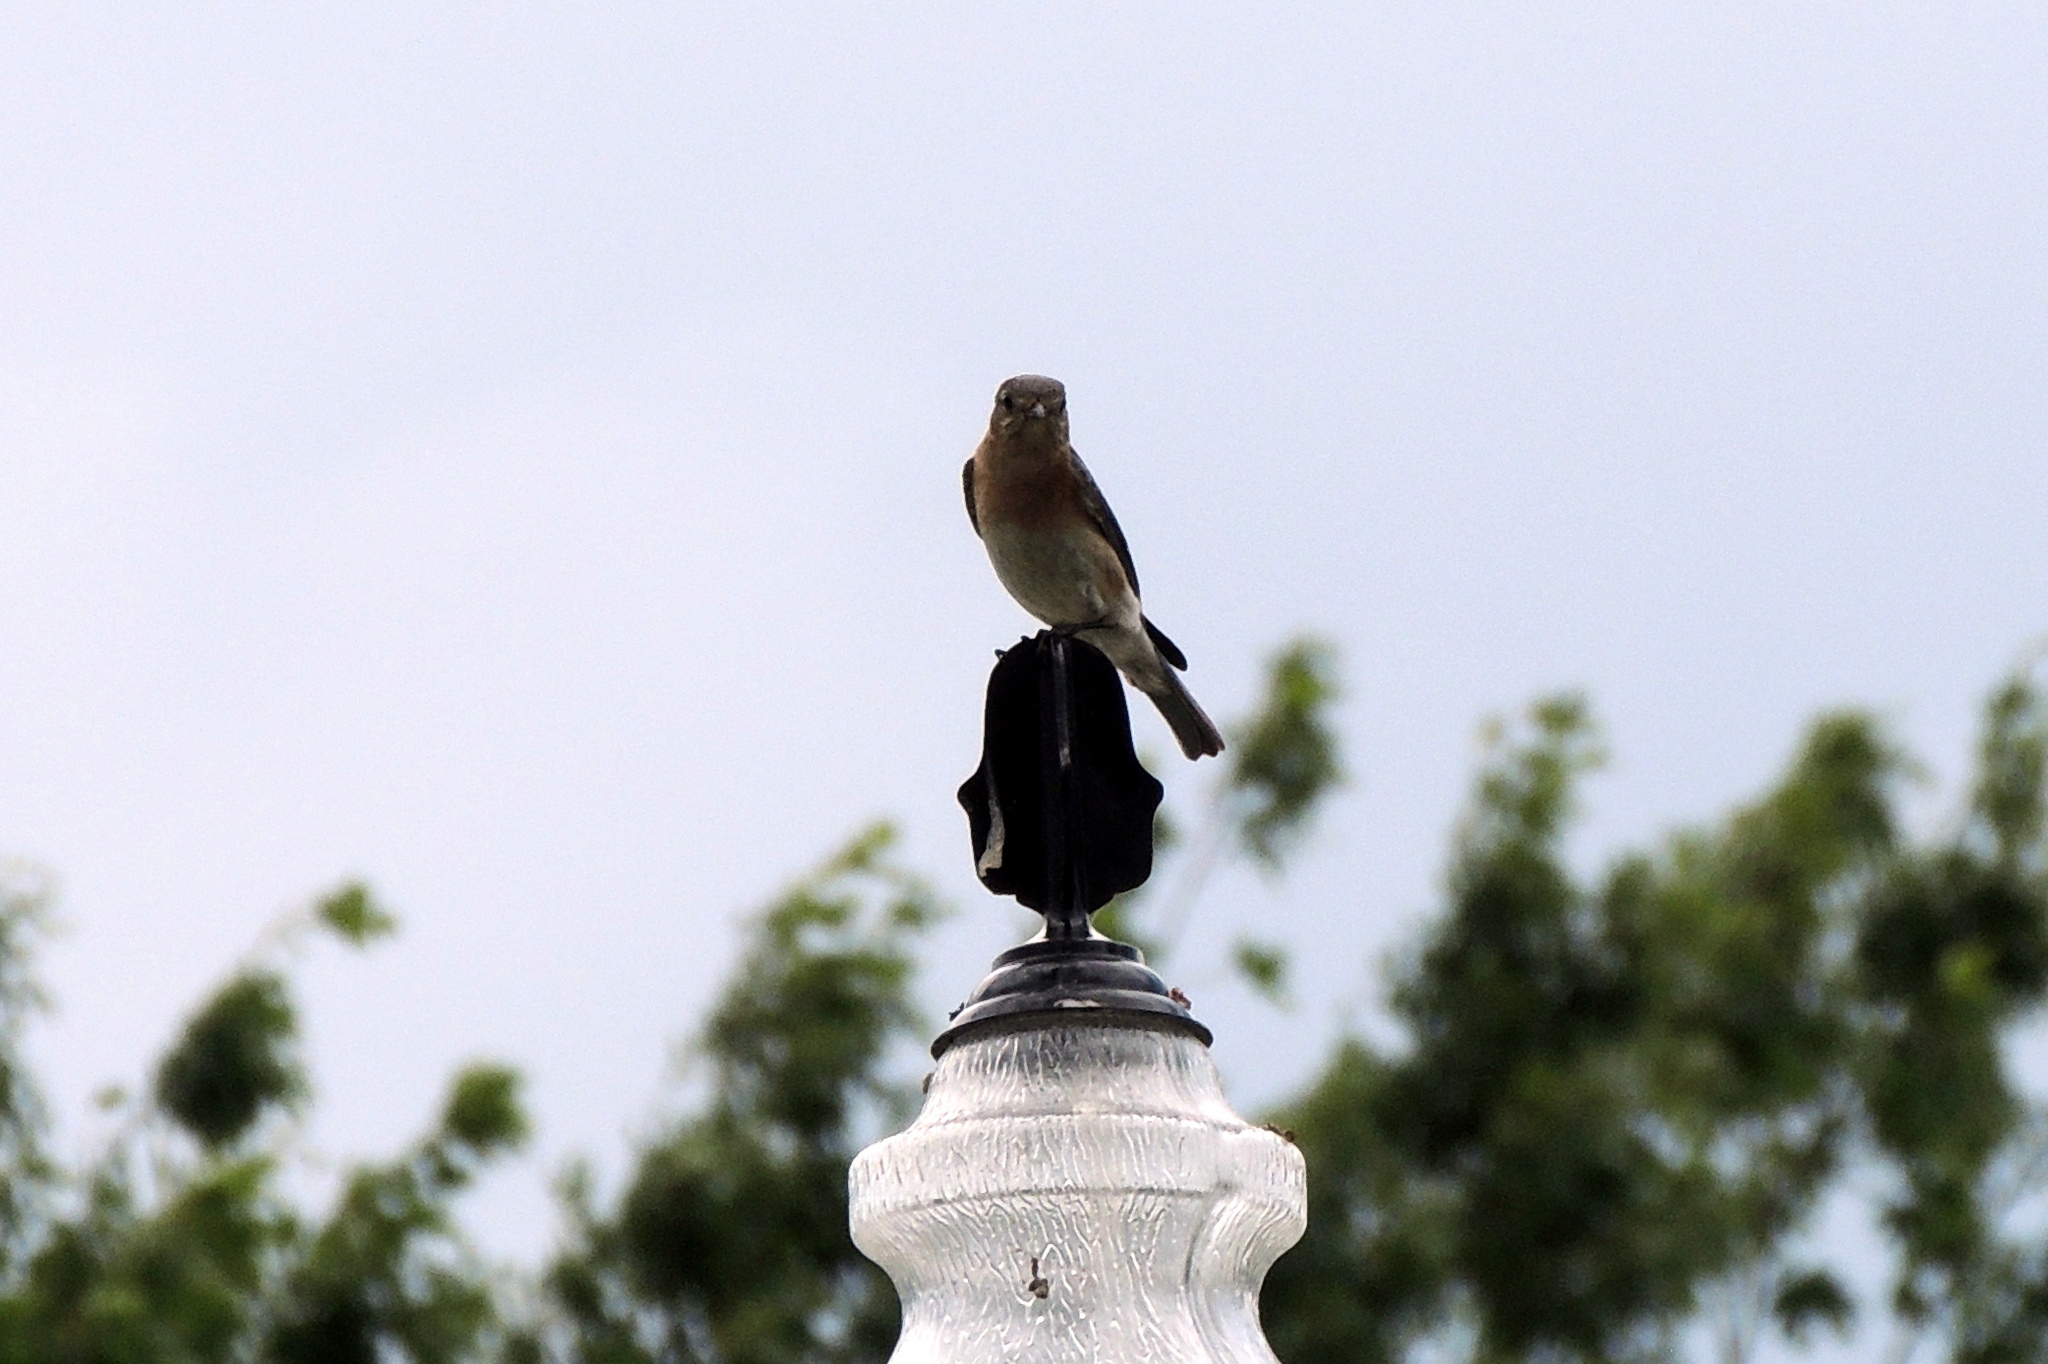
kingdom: Animalia
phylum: Chordata
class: Aves
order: Passeriformes
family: Turdidae
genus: Sialia
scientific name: Sialia sialis
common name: Eastern bluebird
